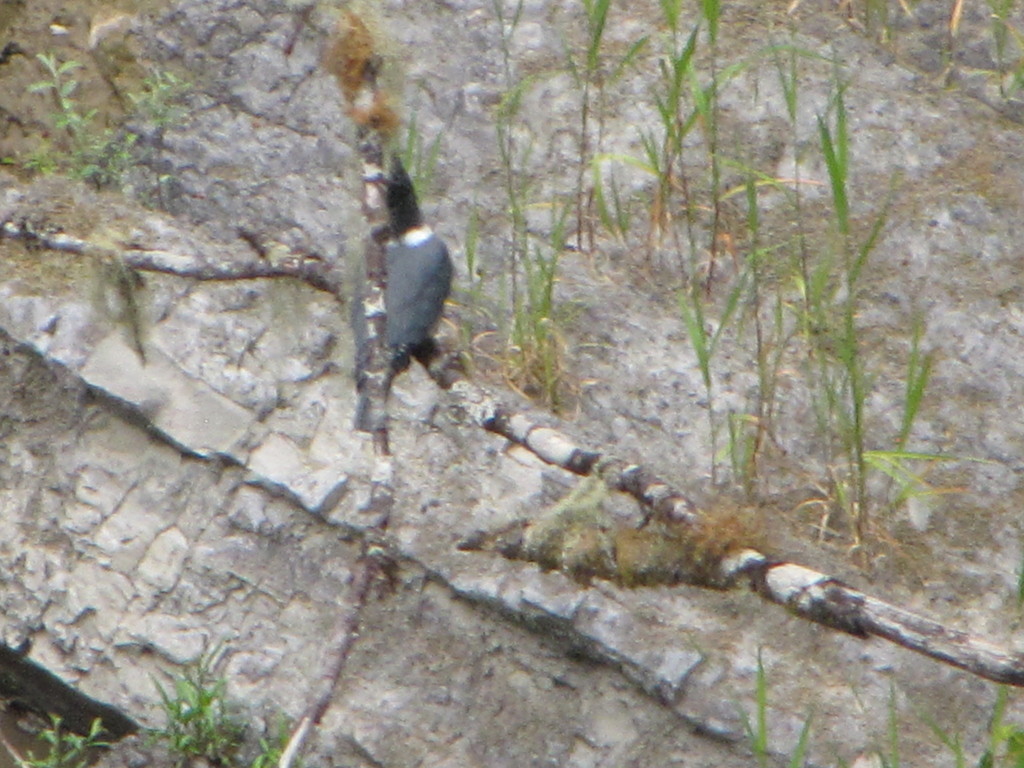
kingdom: Animalia
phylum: Chordata
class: Aves
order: Coraciiformes
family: Alcedinidae
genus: Megaceryle
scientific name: Megaceryle alcyon
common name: Belted kingfisher
